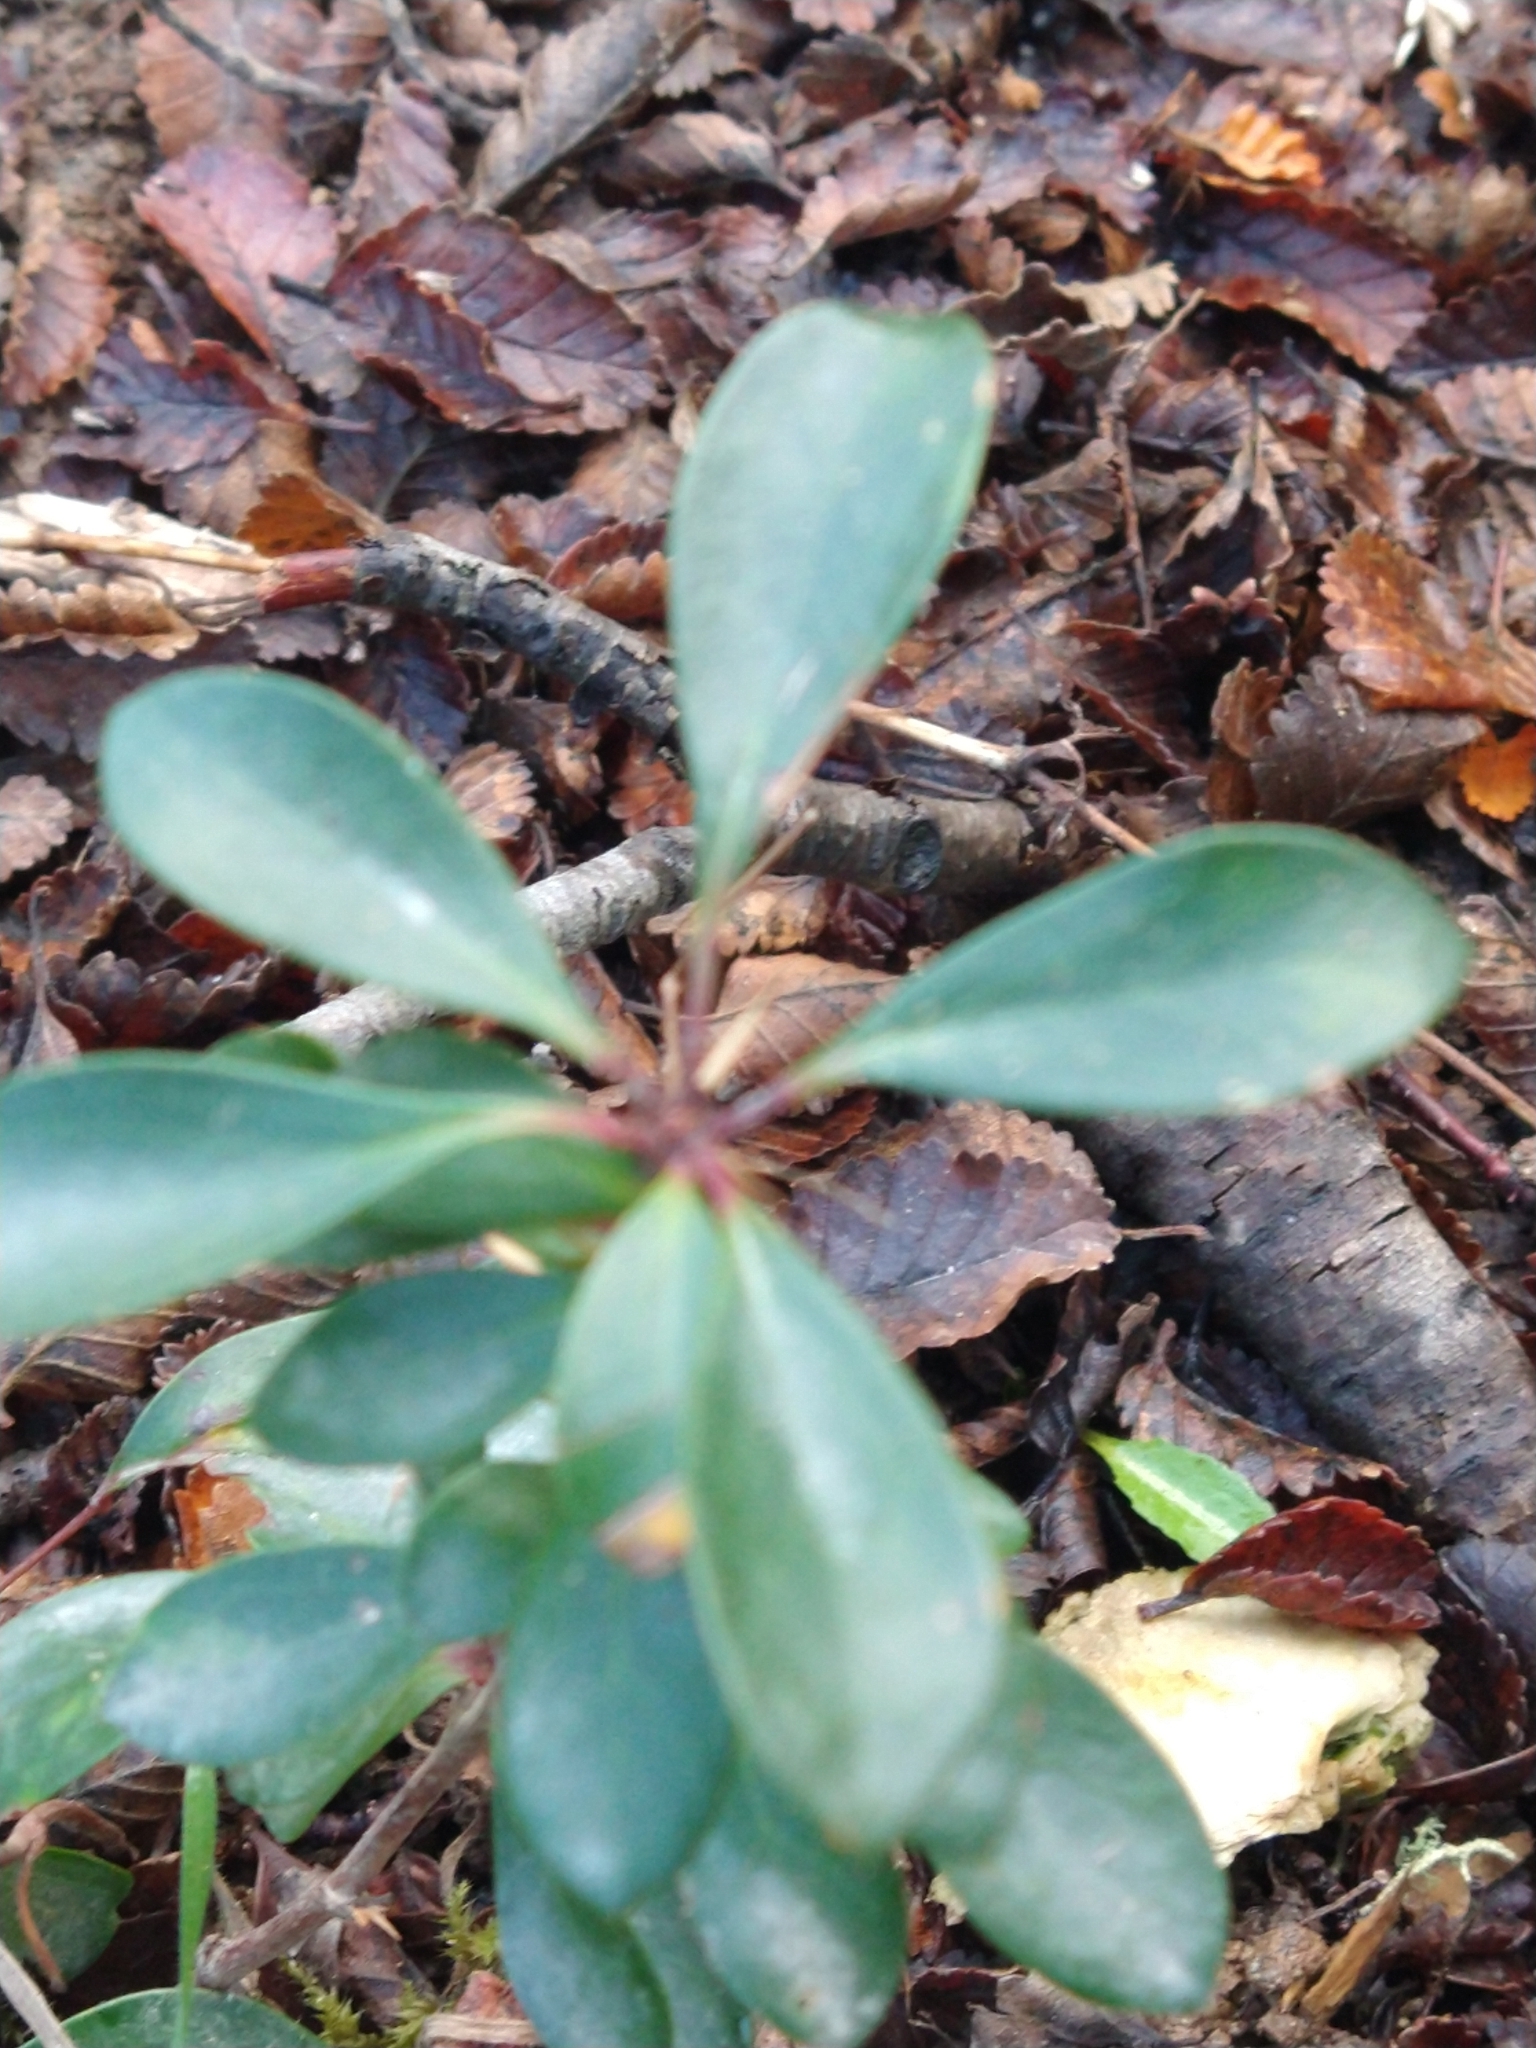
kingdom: Plantae
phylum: Tracheophyta
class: Magnoliopsida
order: Ranunculales
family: Berberidaceae
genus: Berberis
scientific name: Berberis microphylla
